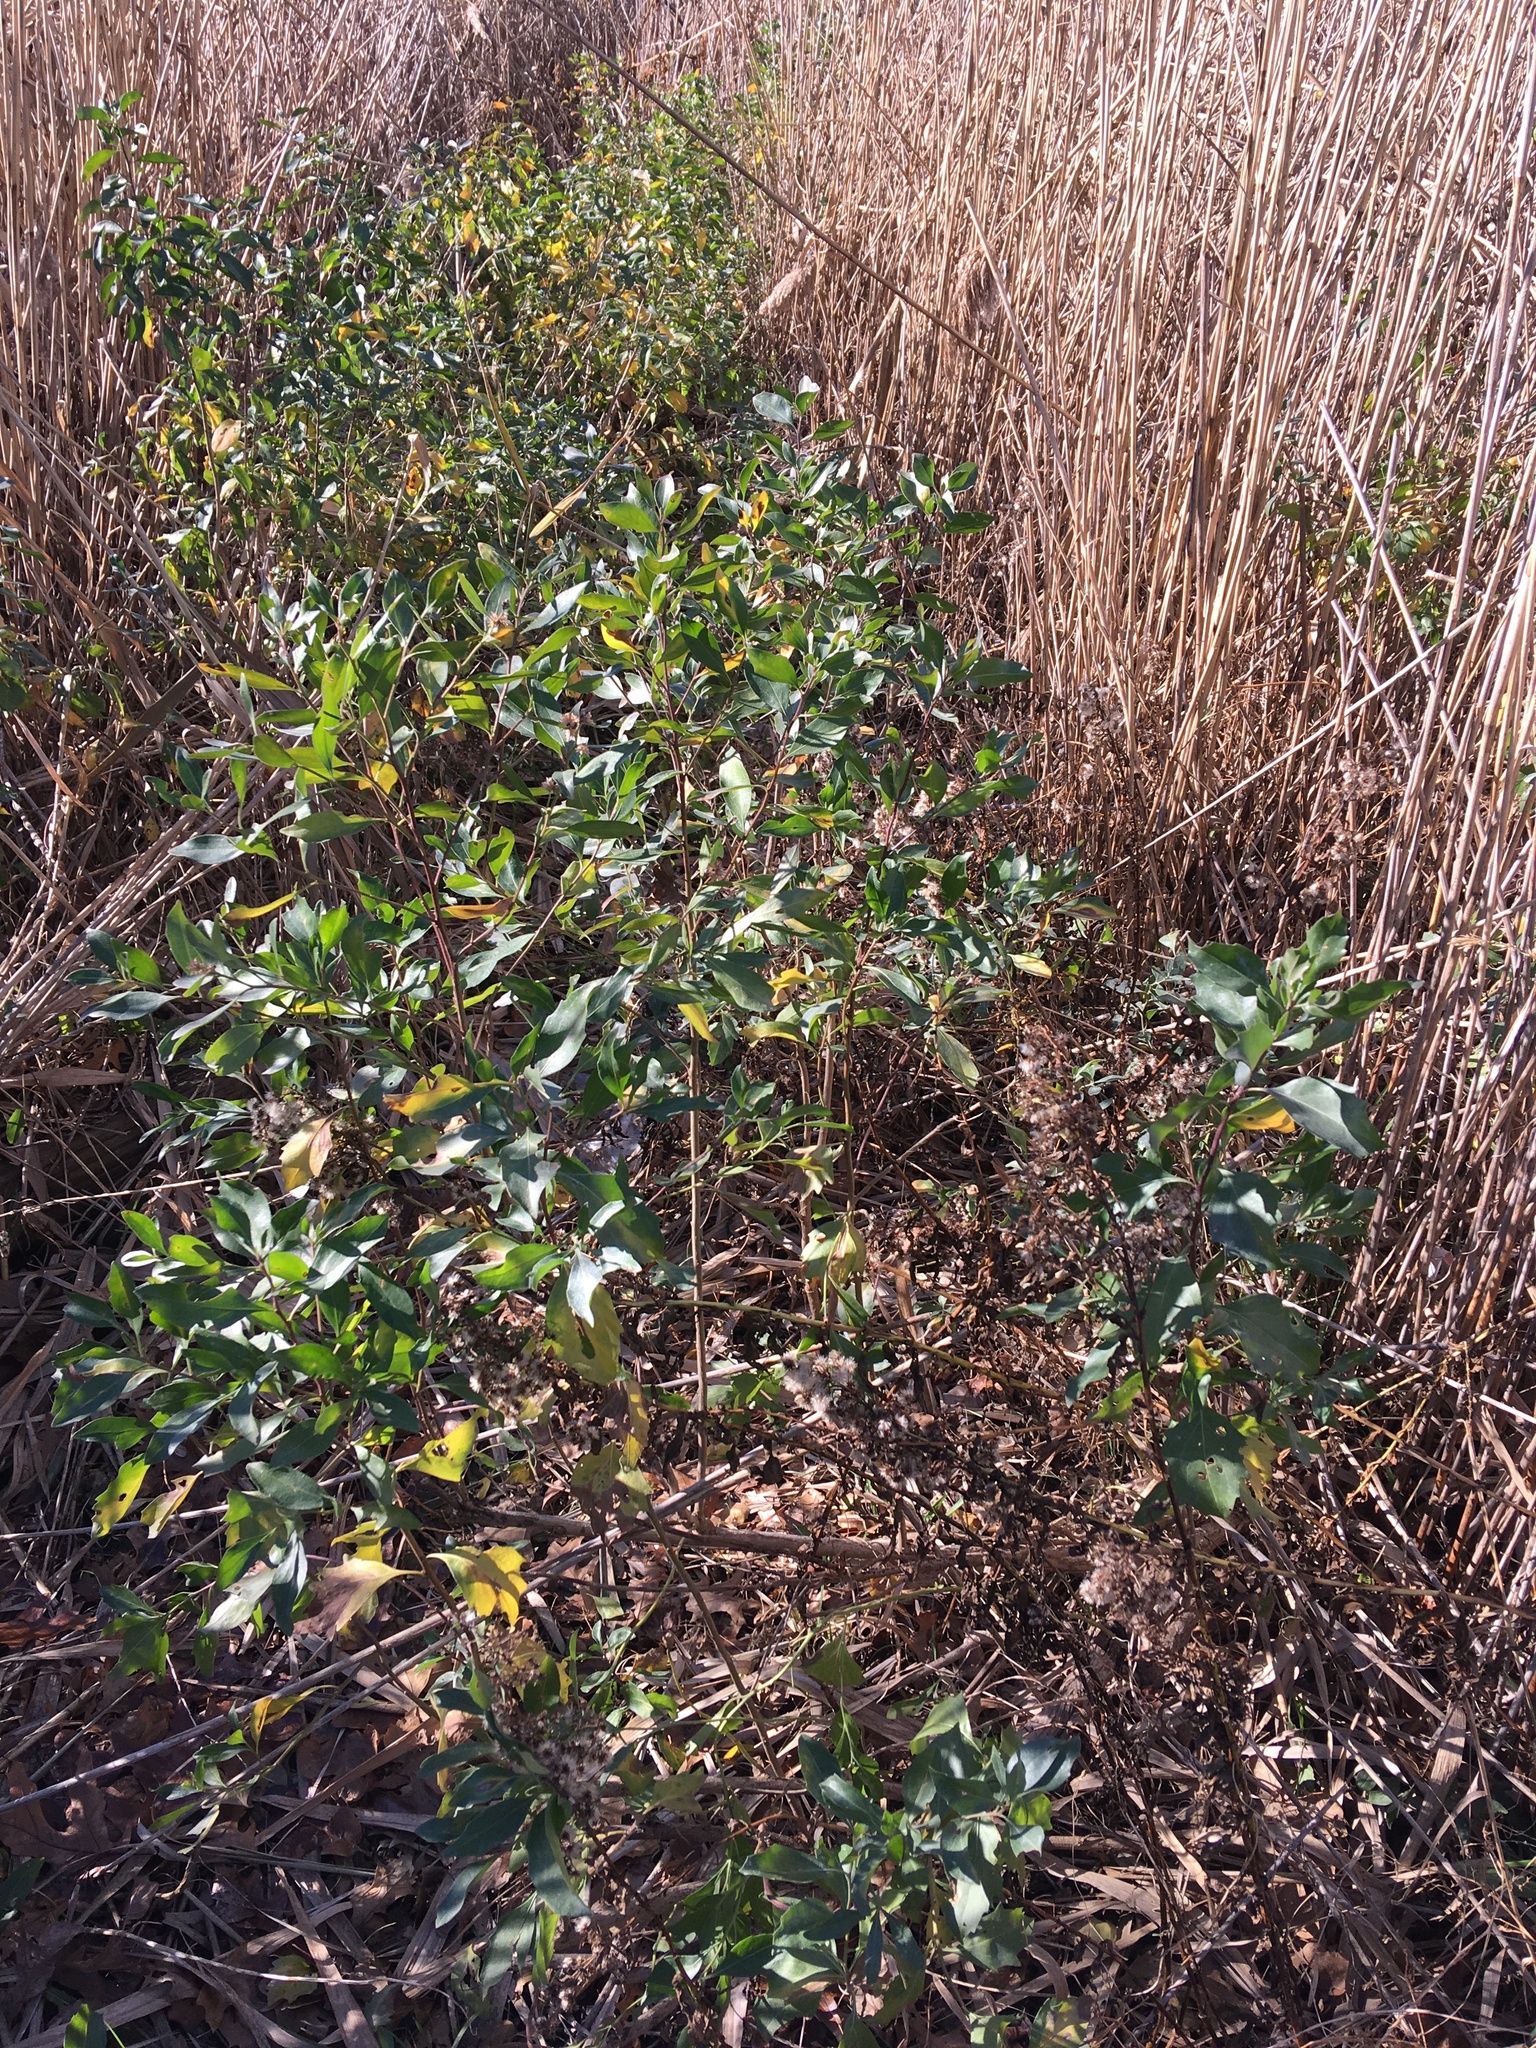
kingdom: Plantae
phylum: Tracheophyta
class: Magnoliopsida
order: Asterales
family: Asteraceae
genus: Baccharis
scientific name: Baccharis halimifolia
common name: Eastern baccharis
